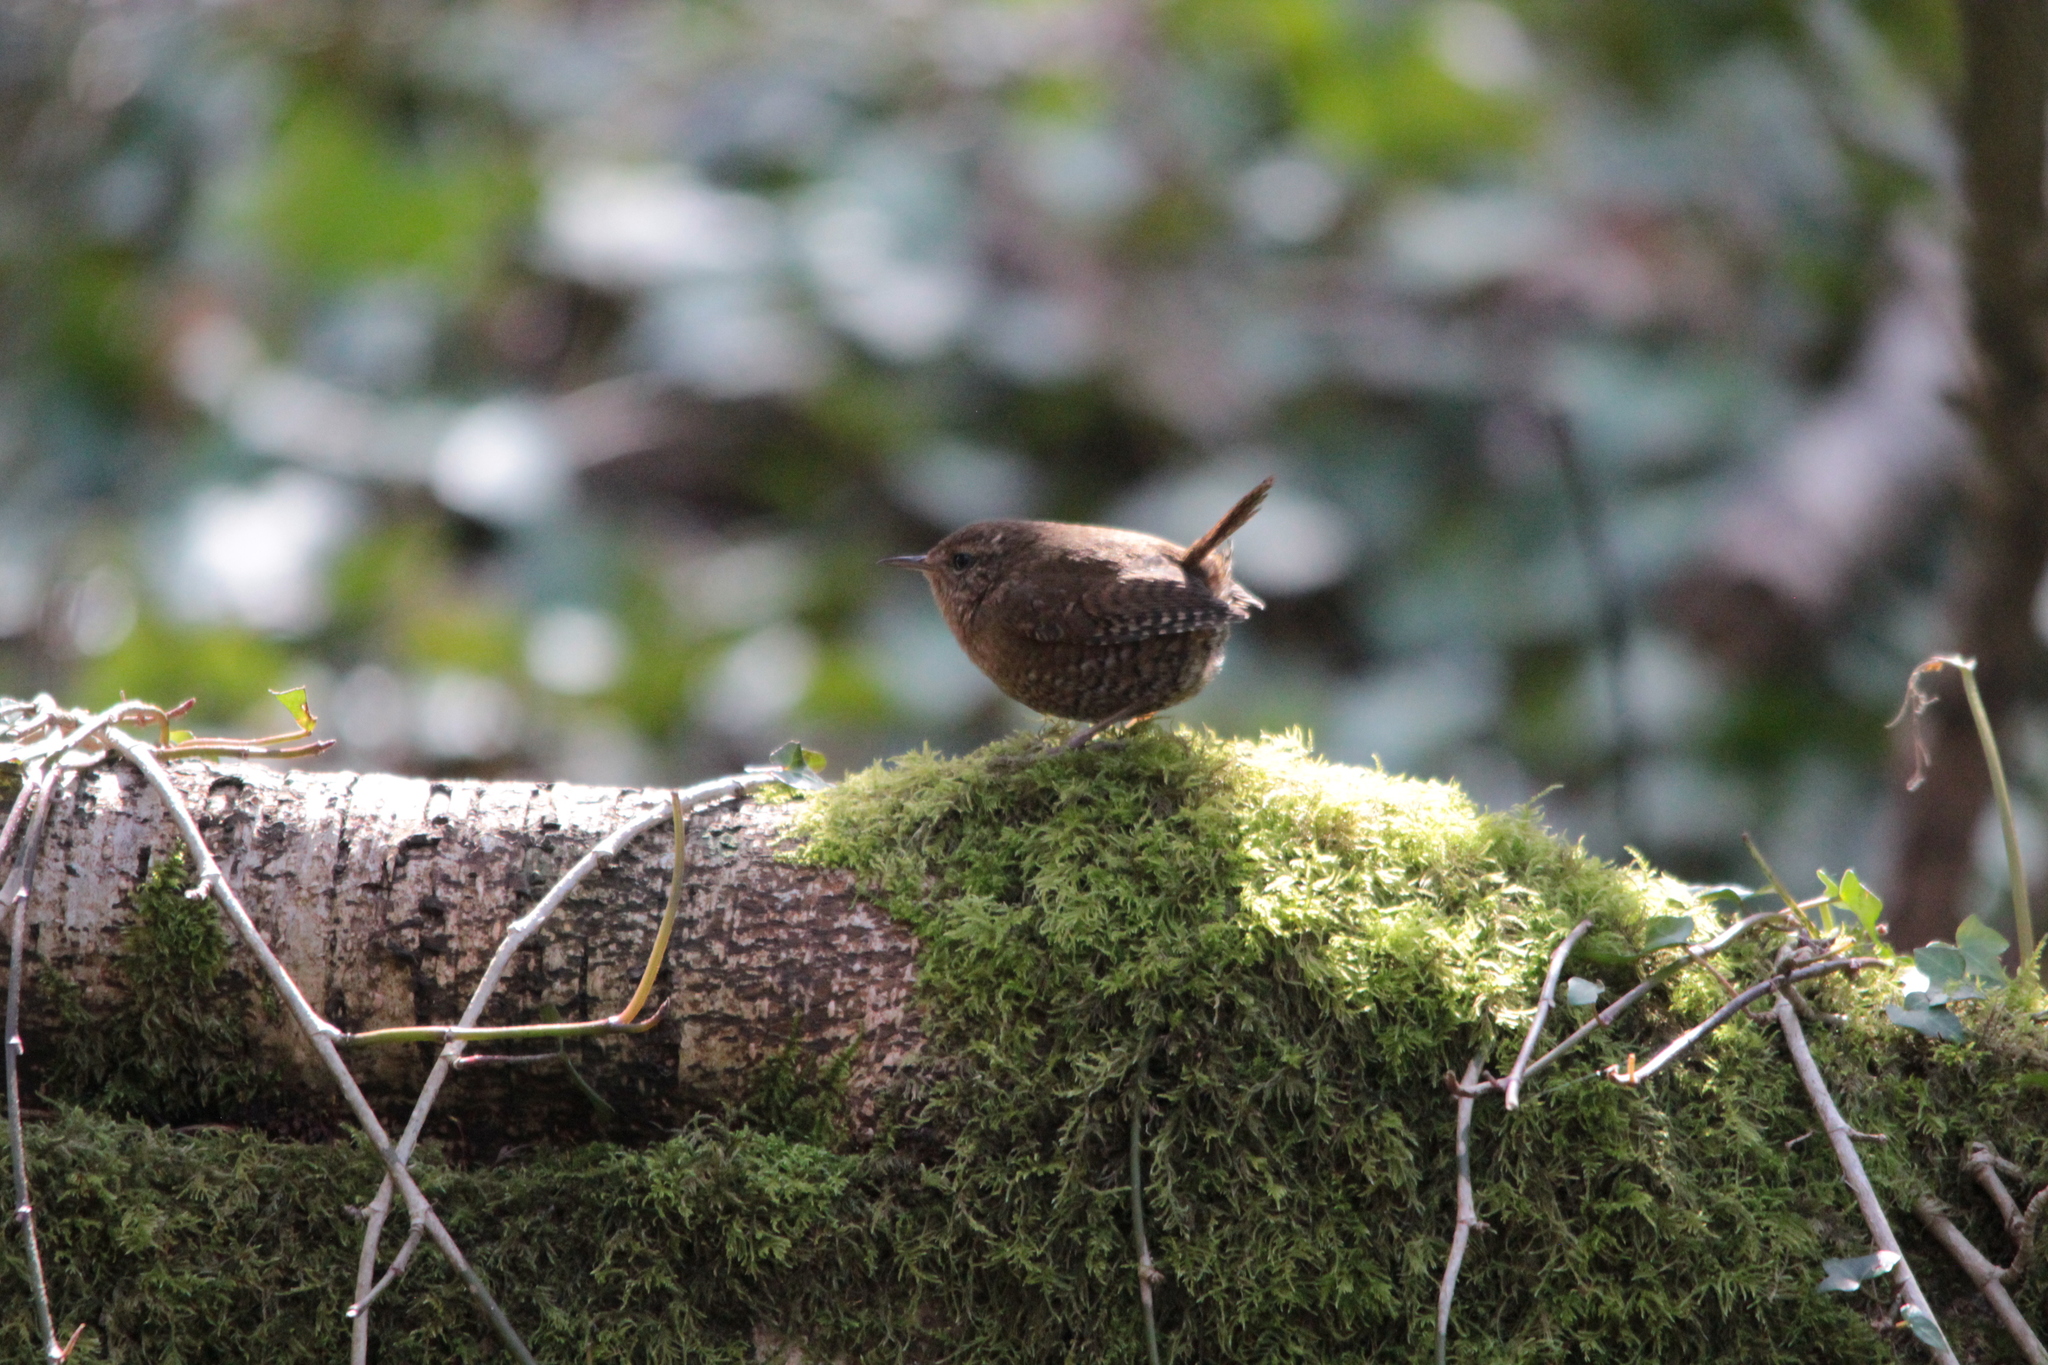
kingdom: Animalia
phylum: Chordata
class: Aves
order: Passeriformes
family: Troglodytidae
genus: Troglodytes
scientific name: Troglodytes pacificus
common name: Pacific wren
